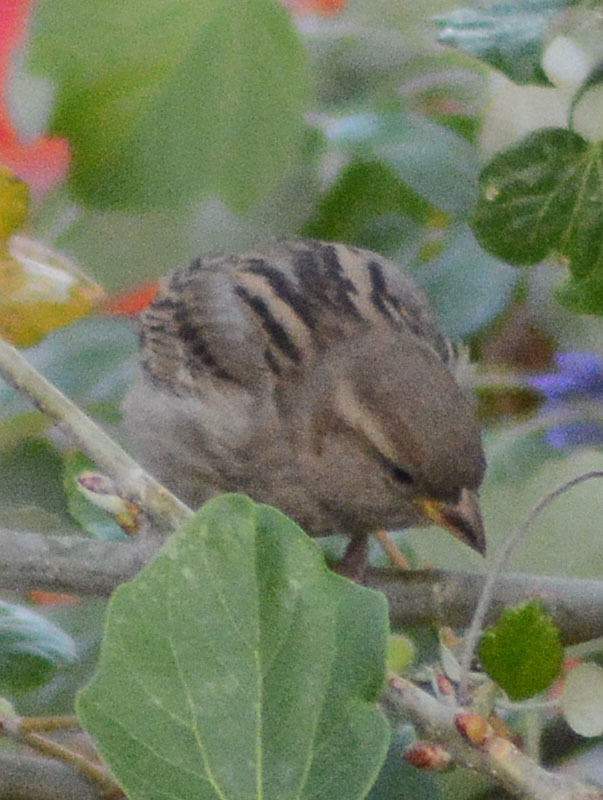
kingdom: Animalia
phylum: Chordata
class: Aves
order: Passeriformes
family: Passeridae
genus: Passer
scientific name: Passer domesticus
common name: House sparrow
